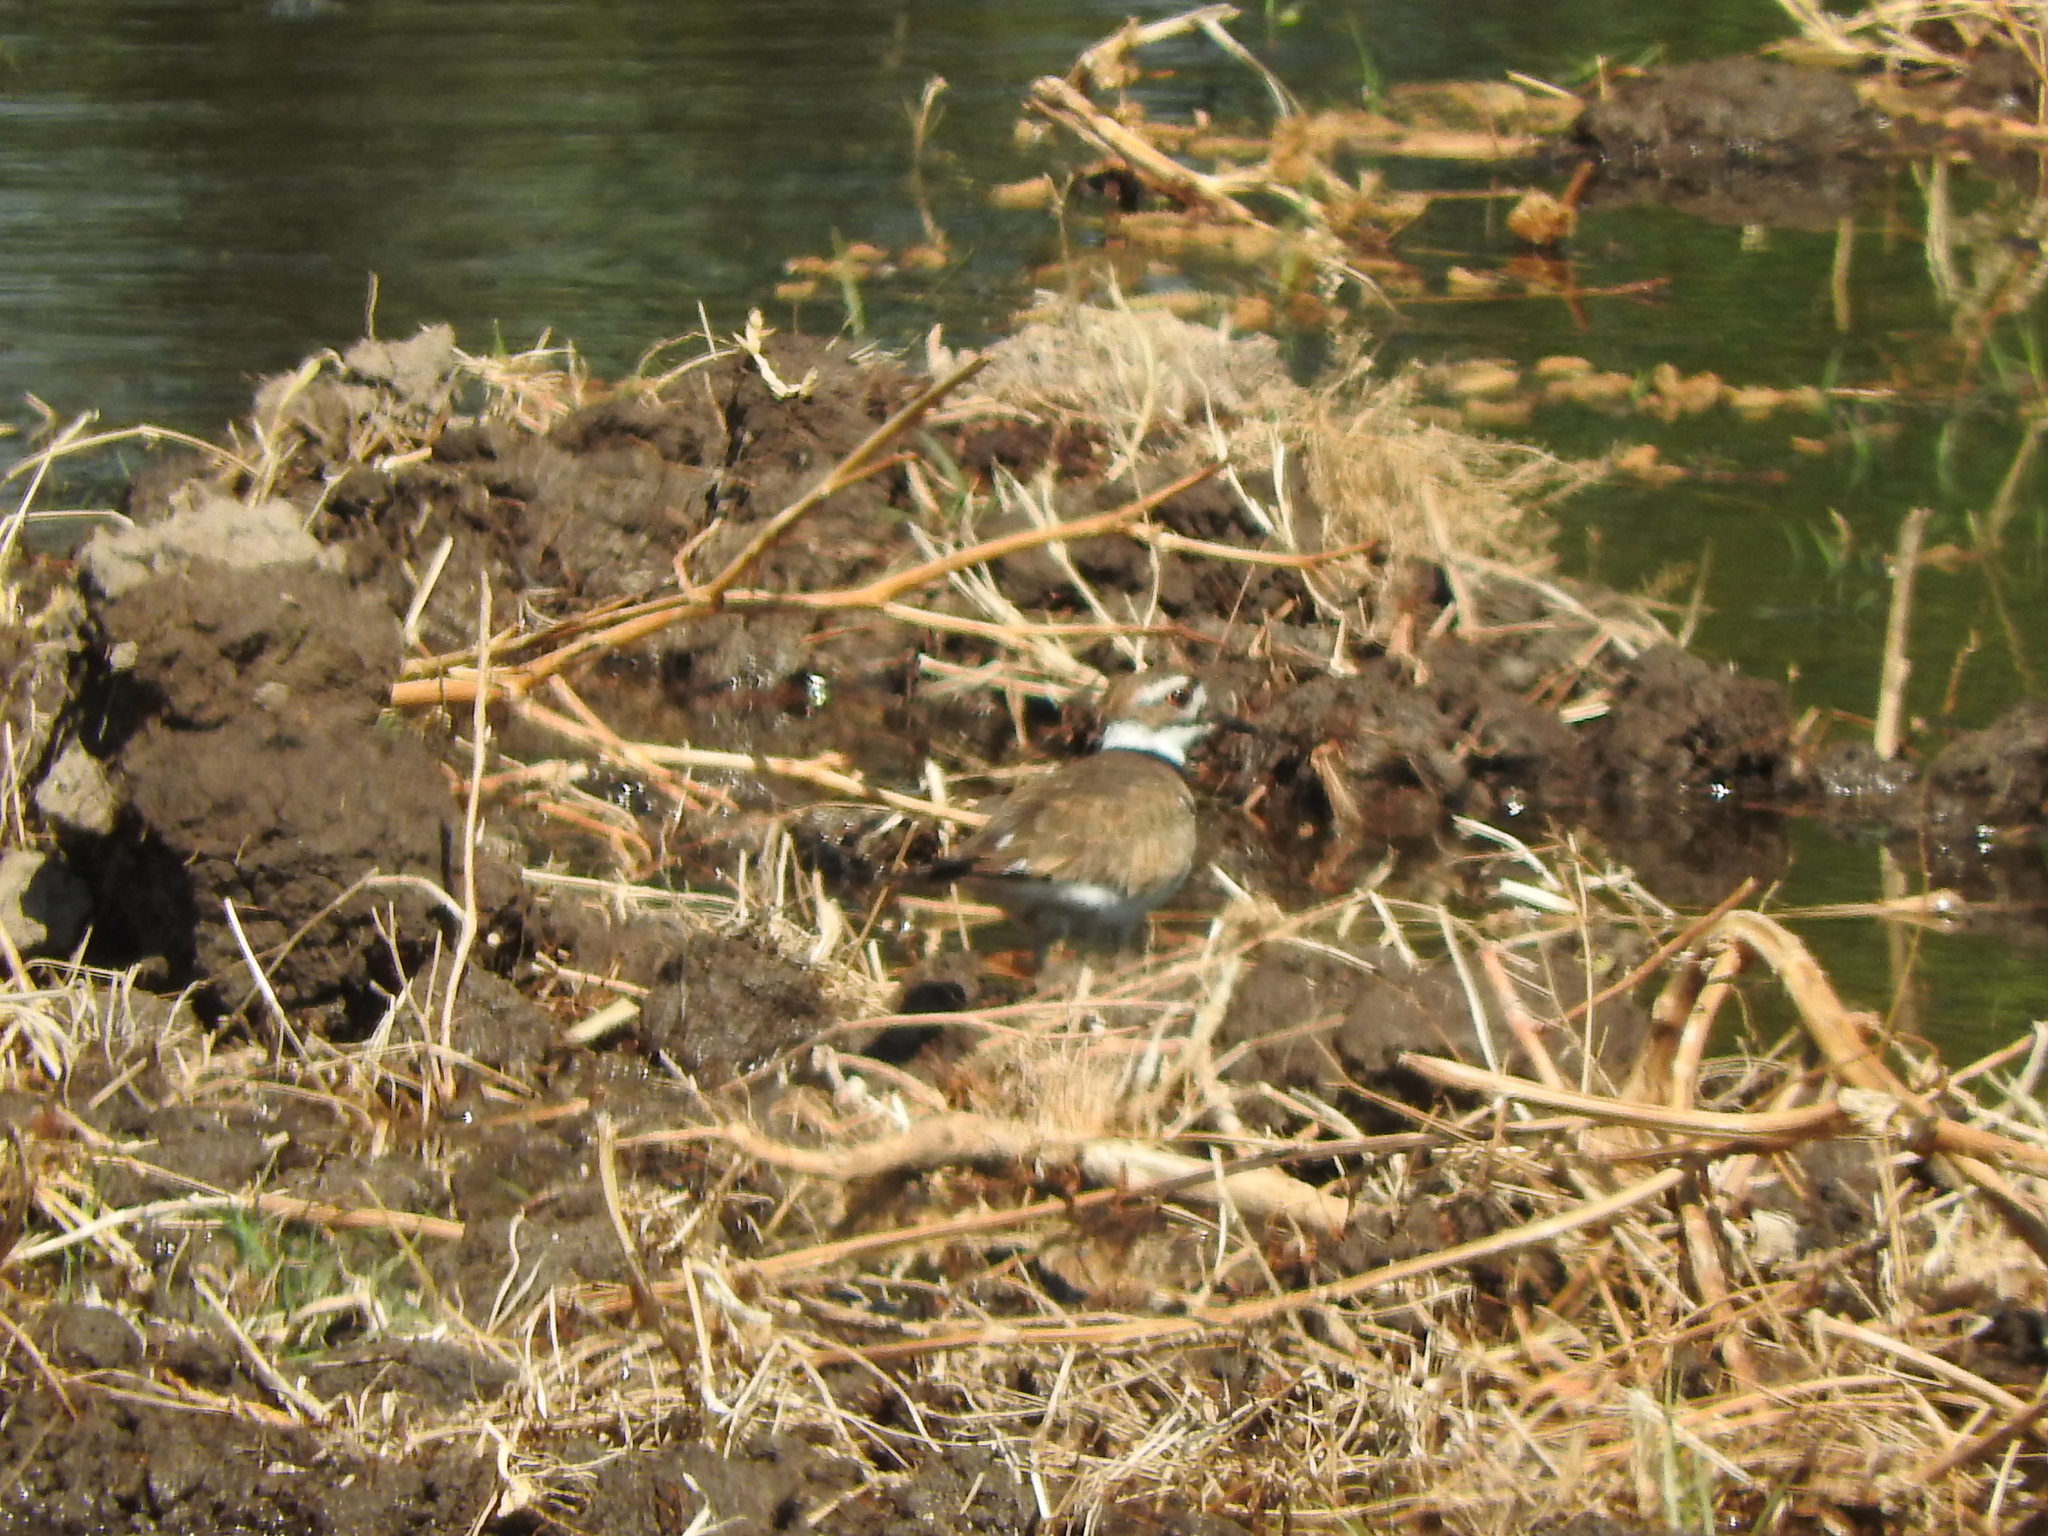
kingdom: Animalia
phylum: Chordata
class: Aves
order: Charadriiformes
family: Charadriidae
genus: Charadrius
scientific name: Charadrius vociferus
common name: Killdeer
